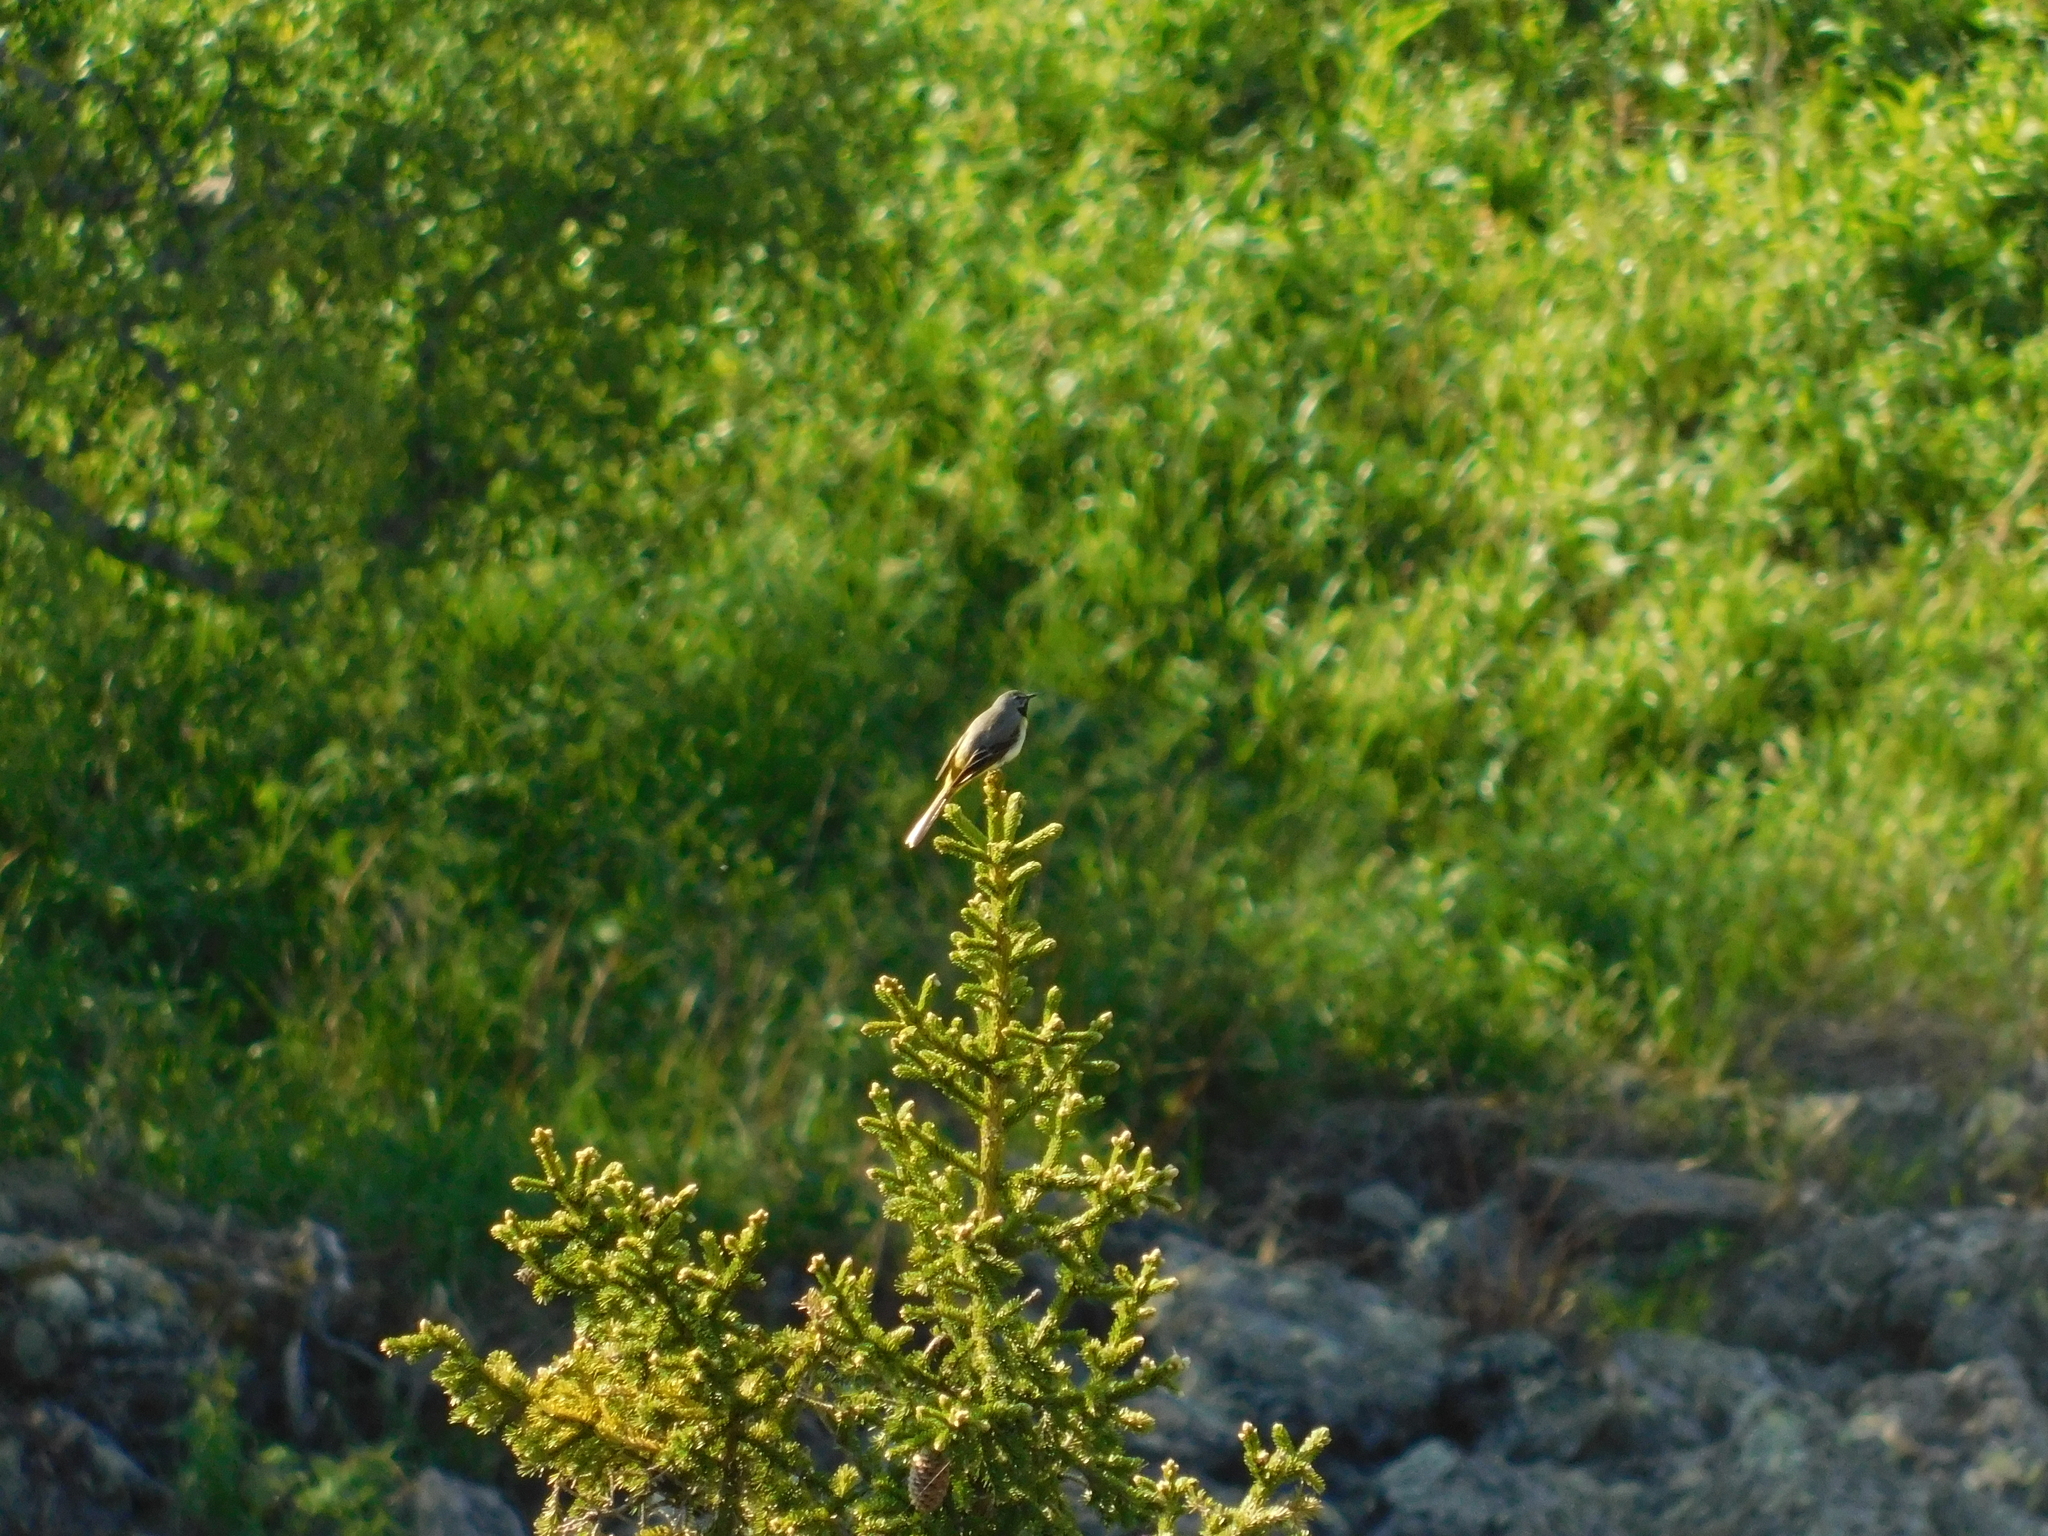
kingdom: Animalia
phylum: Chordata
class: Aves
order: Passeriformes
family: Motacillidae
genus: Motacilla
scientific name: Motacilla cinerea
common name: Grey wagtail
